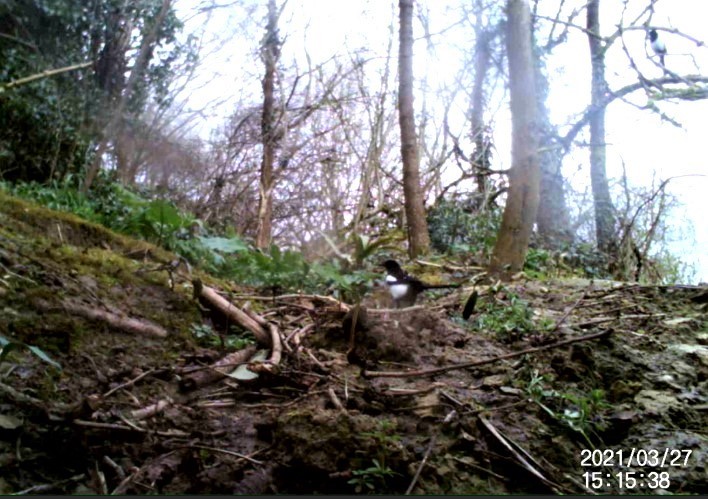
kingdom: Animalia
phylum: Chordata
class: Aves
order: Passeriformes
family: Corvidae
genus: Pica
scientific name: Pica pica
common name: Eurasian magpie
